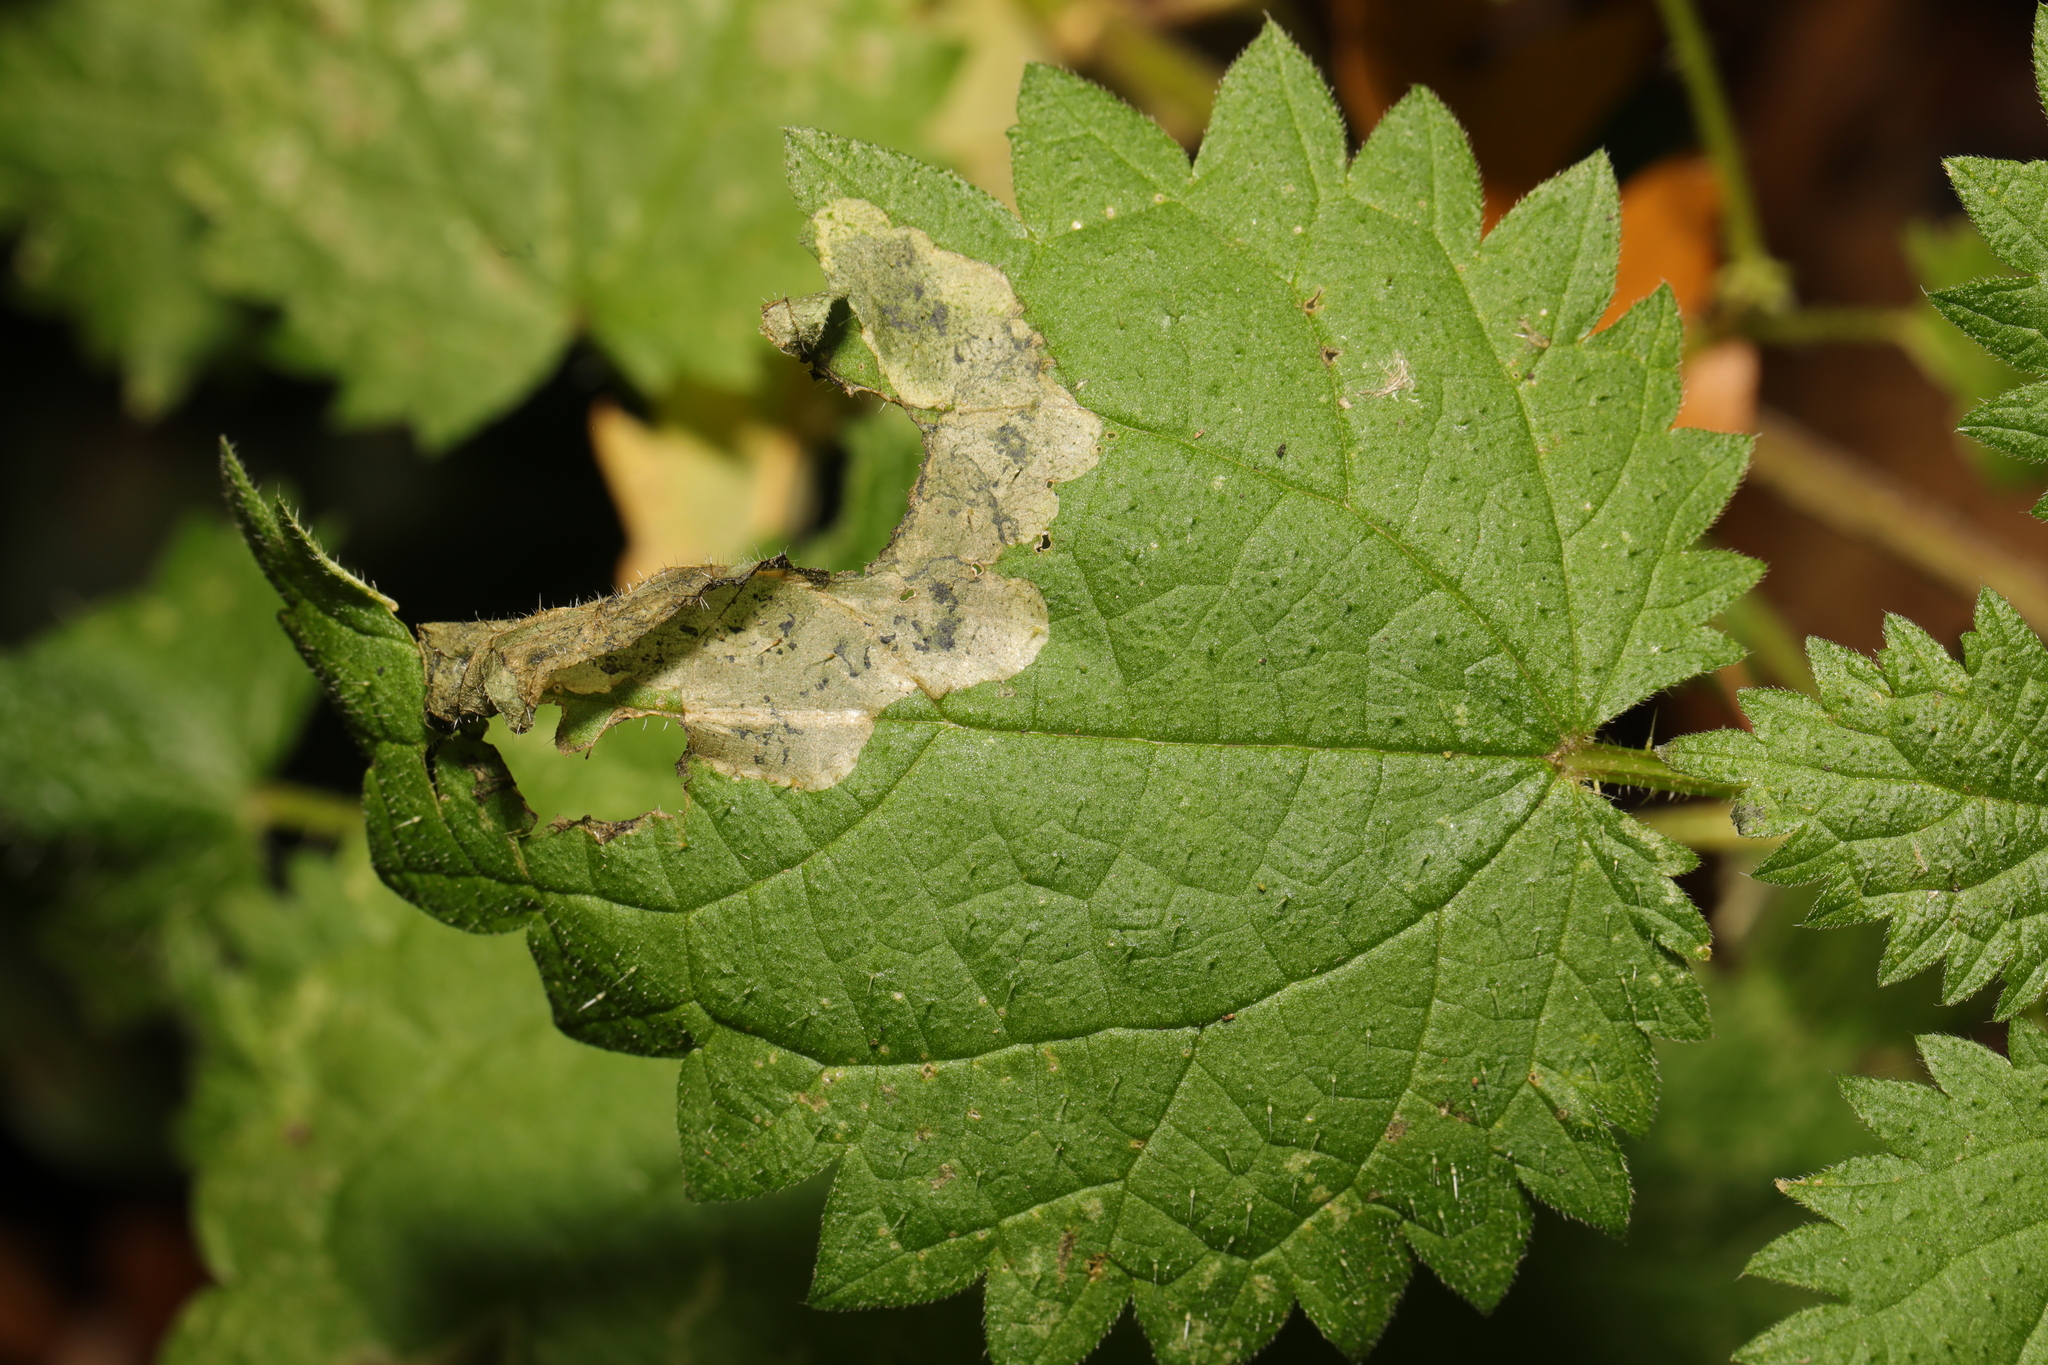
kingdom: Animalia
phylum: Arthropoda
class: Insecta
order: Diptera
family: Agromyzidae
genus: Agromyza
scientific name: Agromyza anthracina
